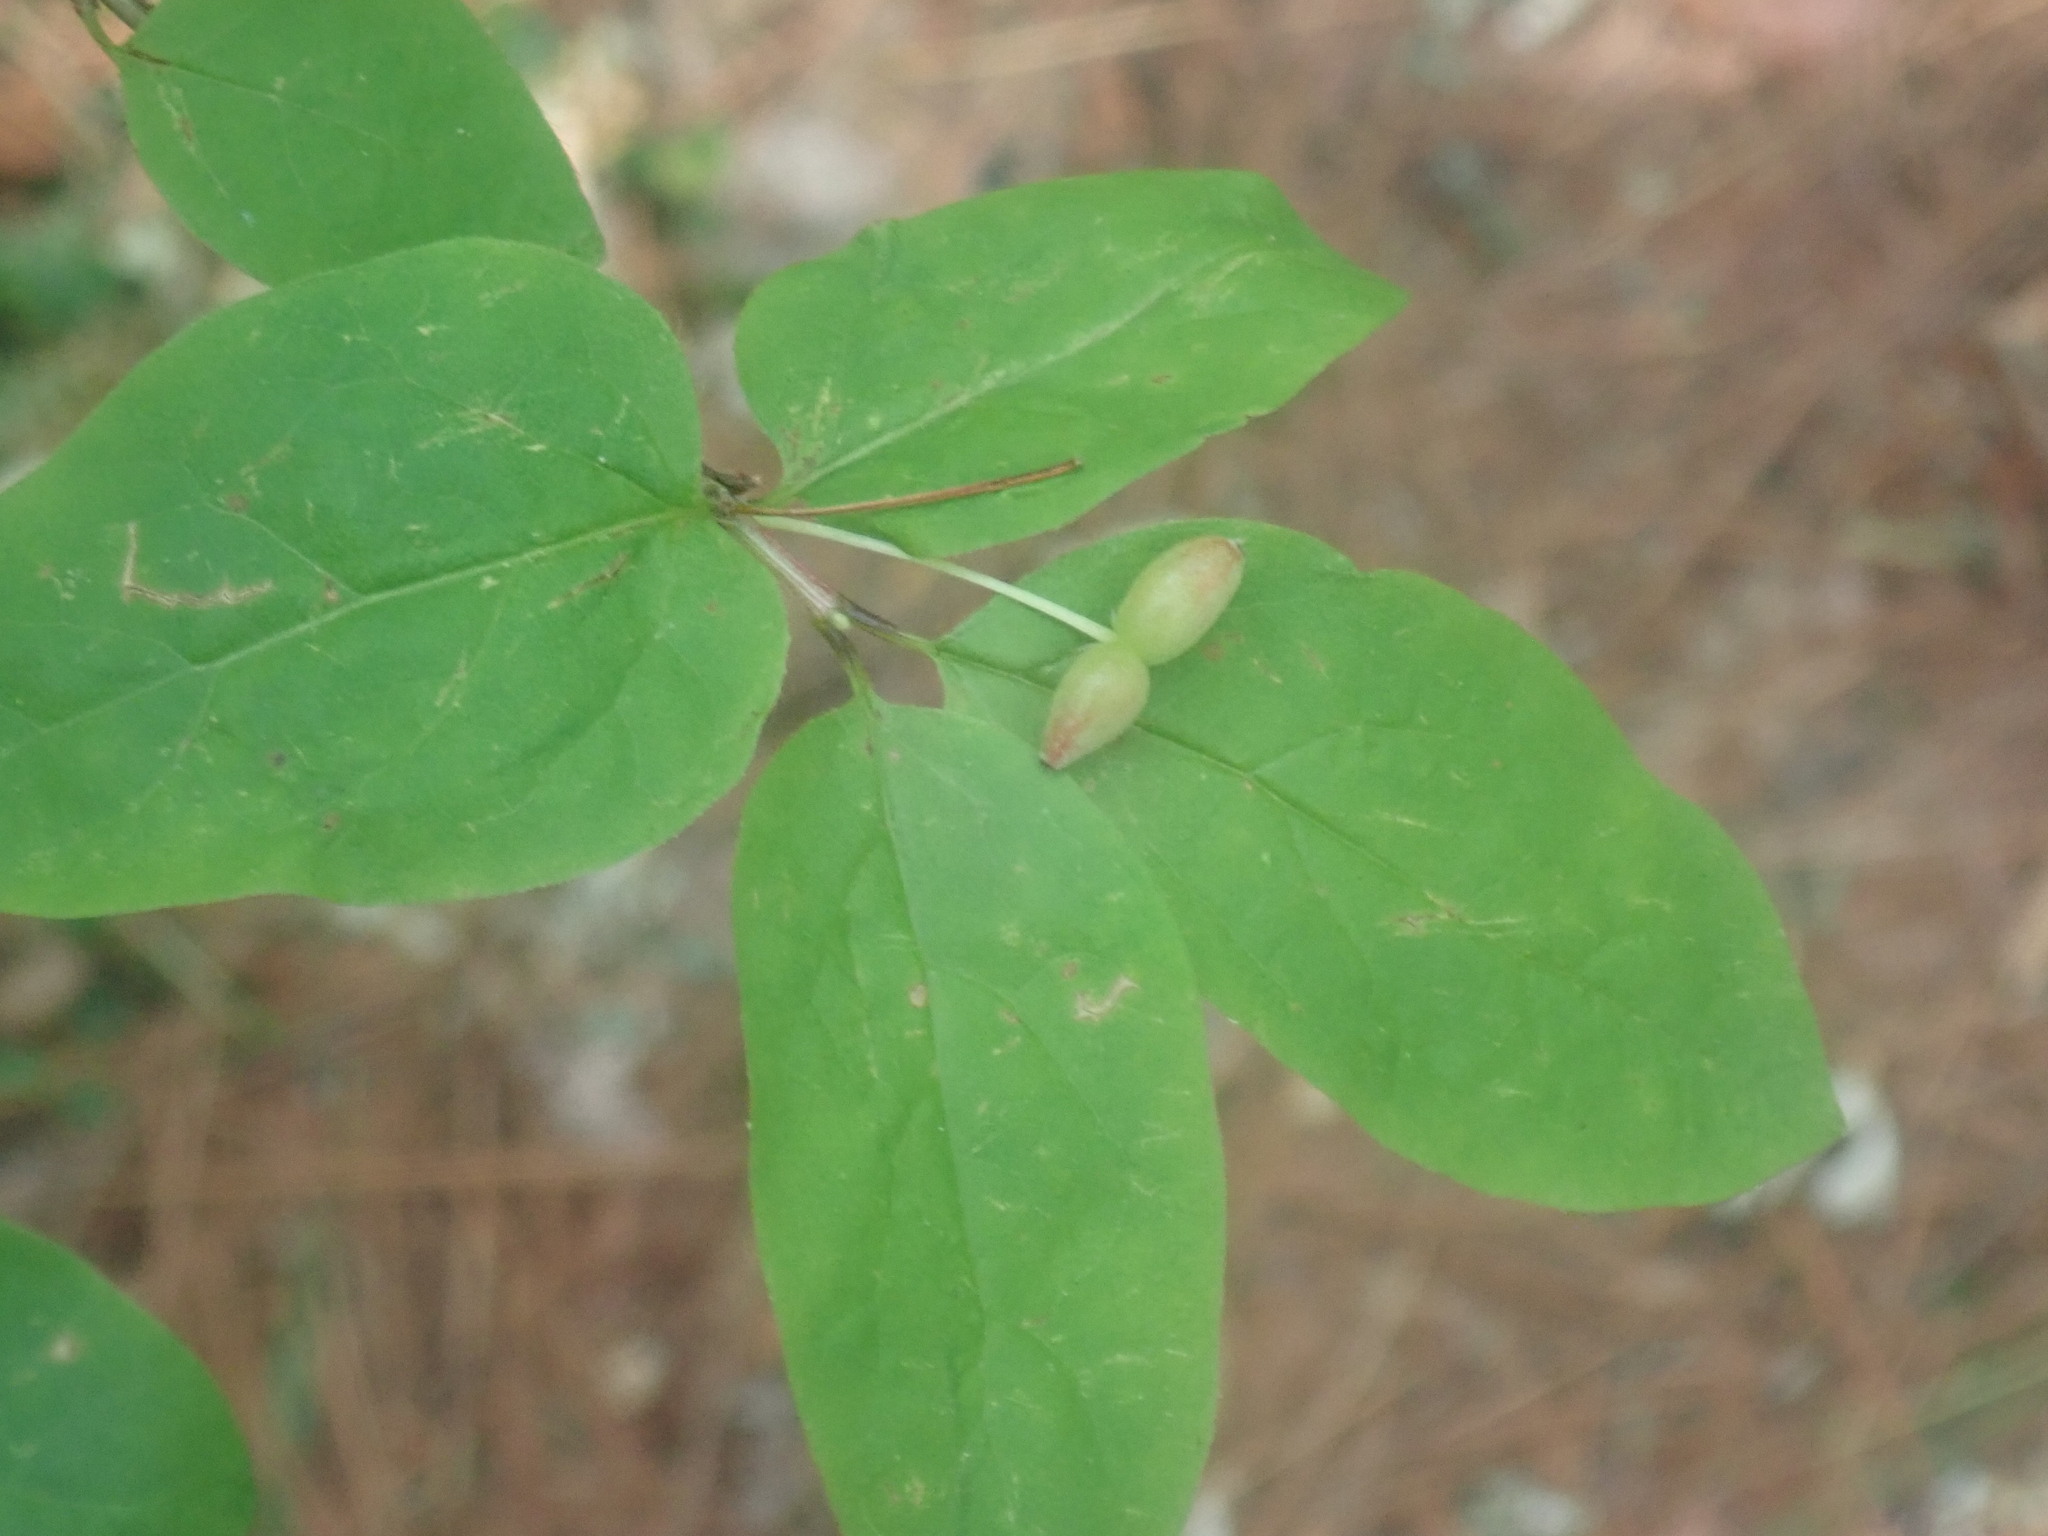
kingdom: Plantae
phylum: Tracheophyta
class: Magnoliopsida
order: Dipsacales
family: Caprifoliaceae
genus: Lonicera
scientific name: Lonicera canadensis
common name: American fly-honeysuckle
